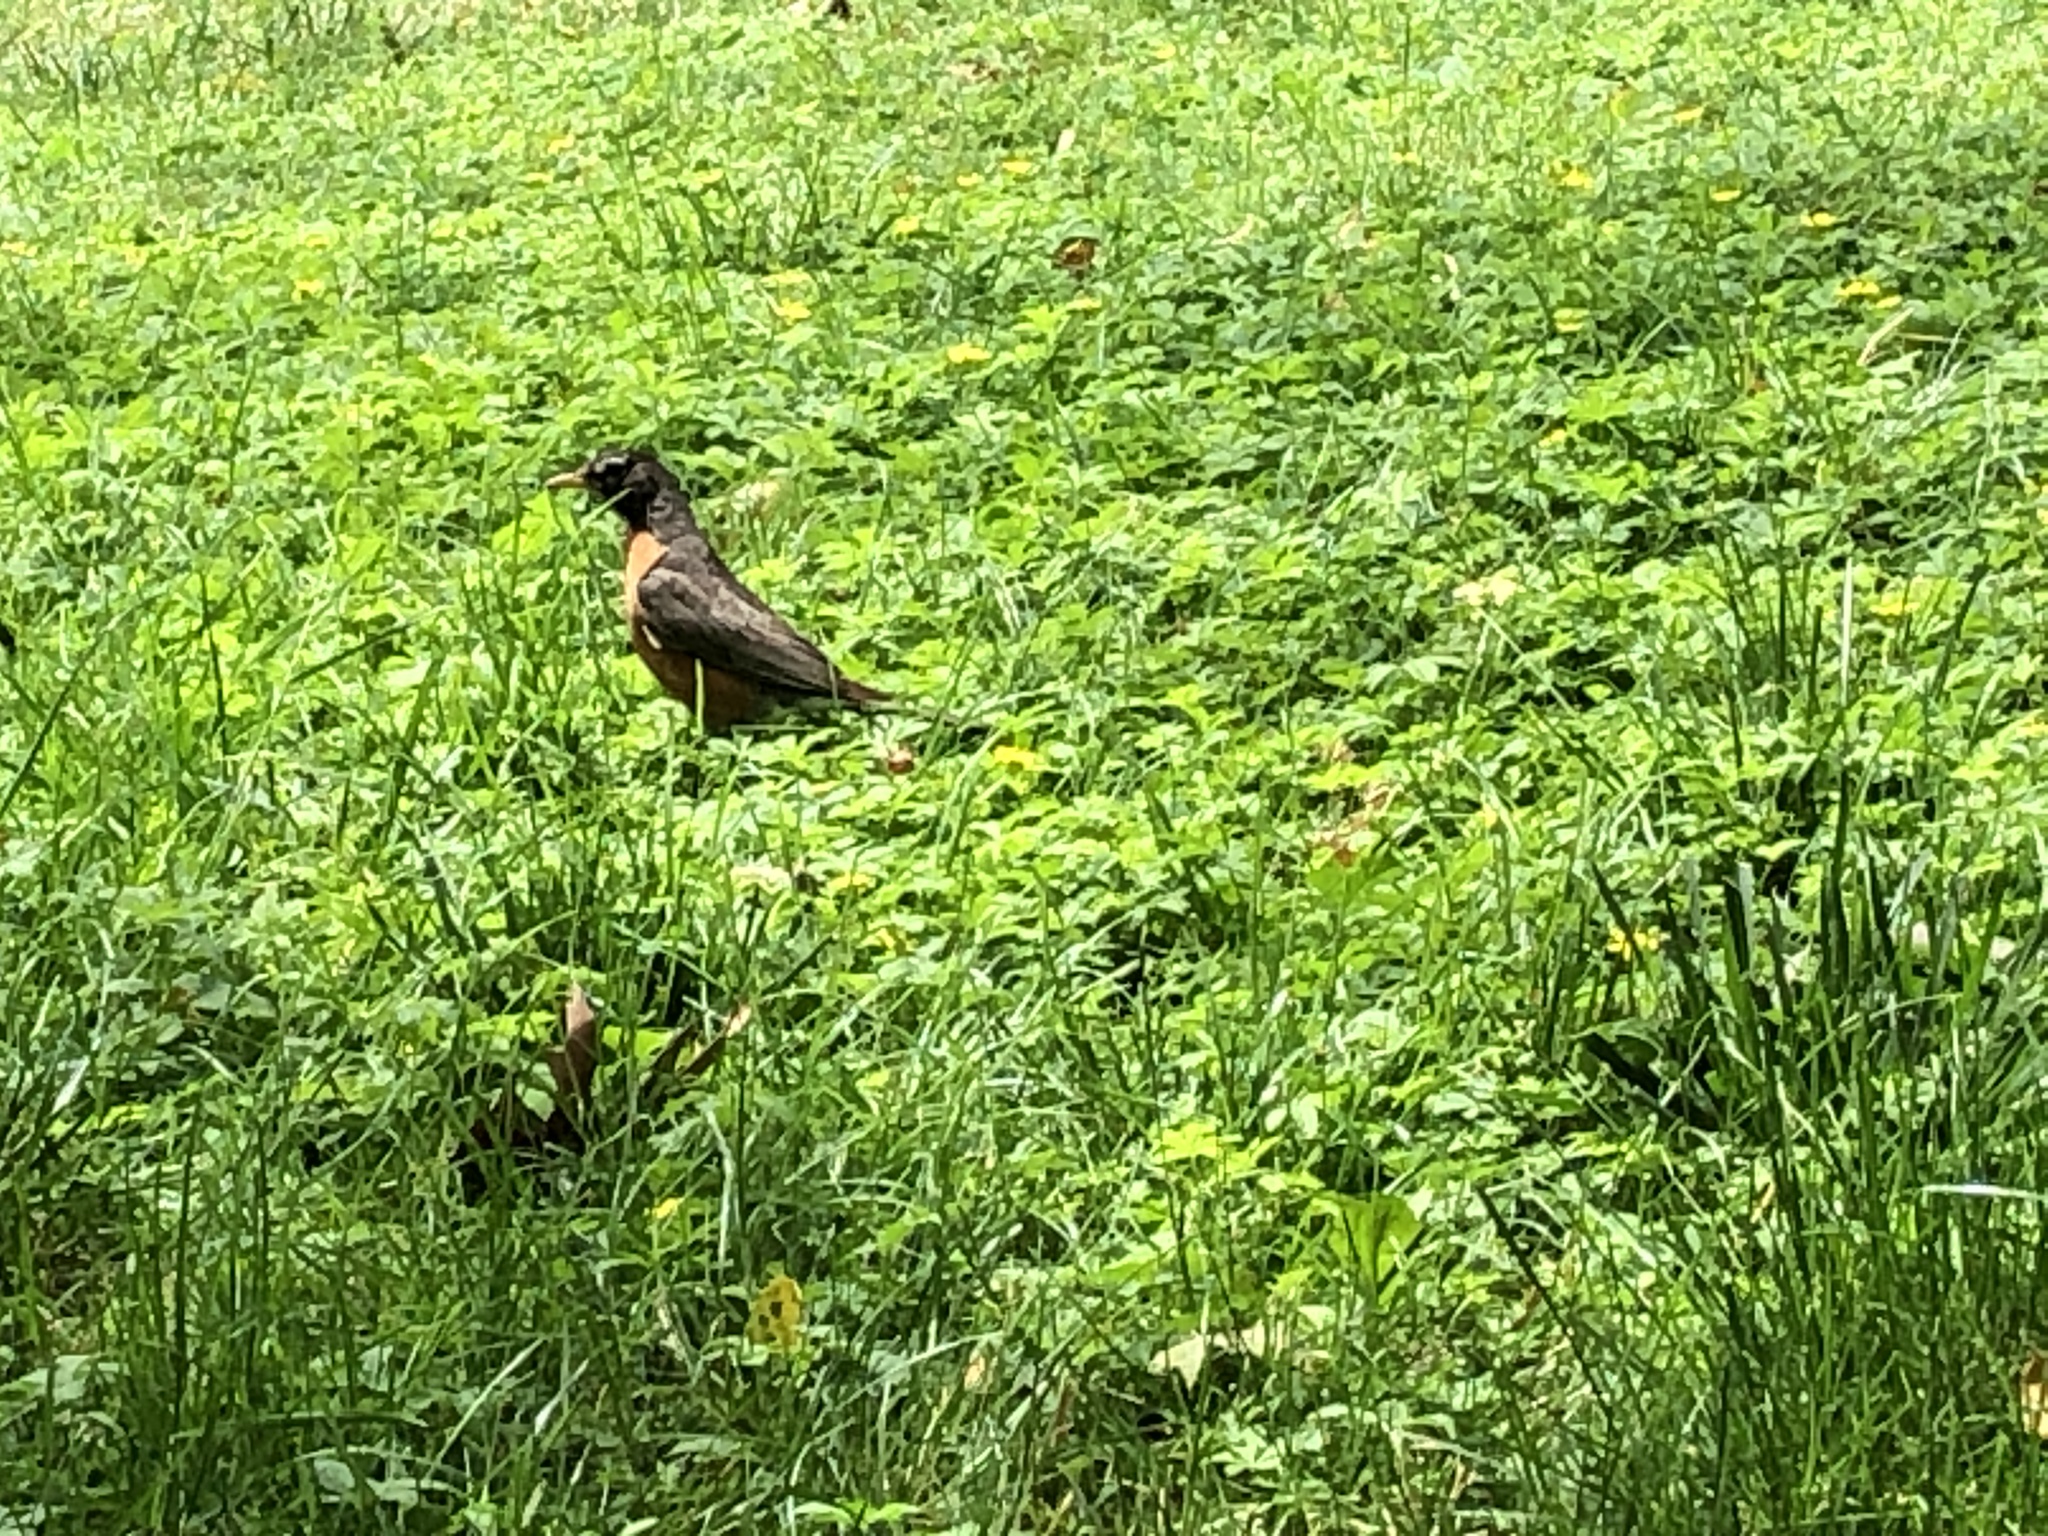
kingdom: Animalia
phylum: Chordata
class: Aves
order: Passeriformes
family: Turdidae
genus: Turdus
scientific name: Turdus migratorius
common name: American robin
